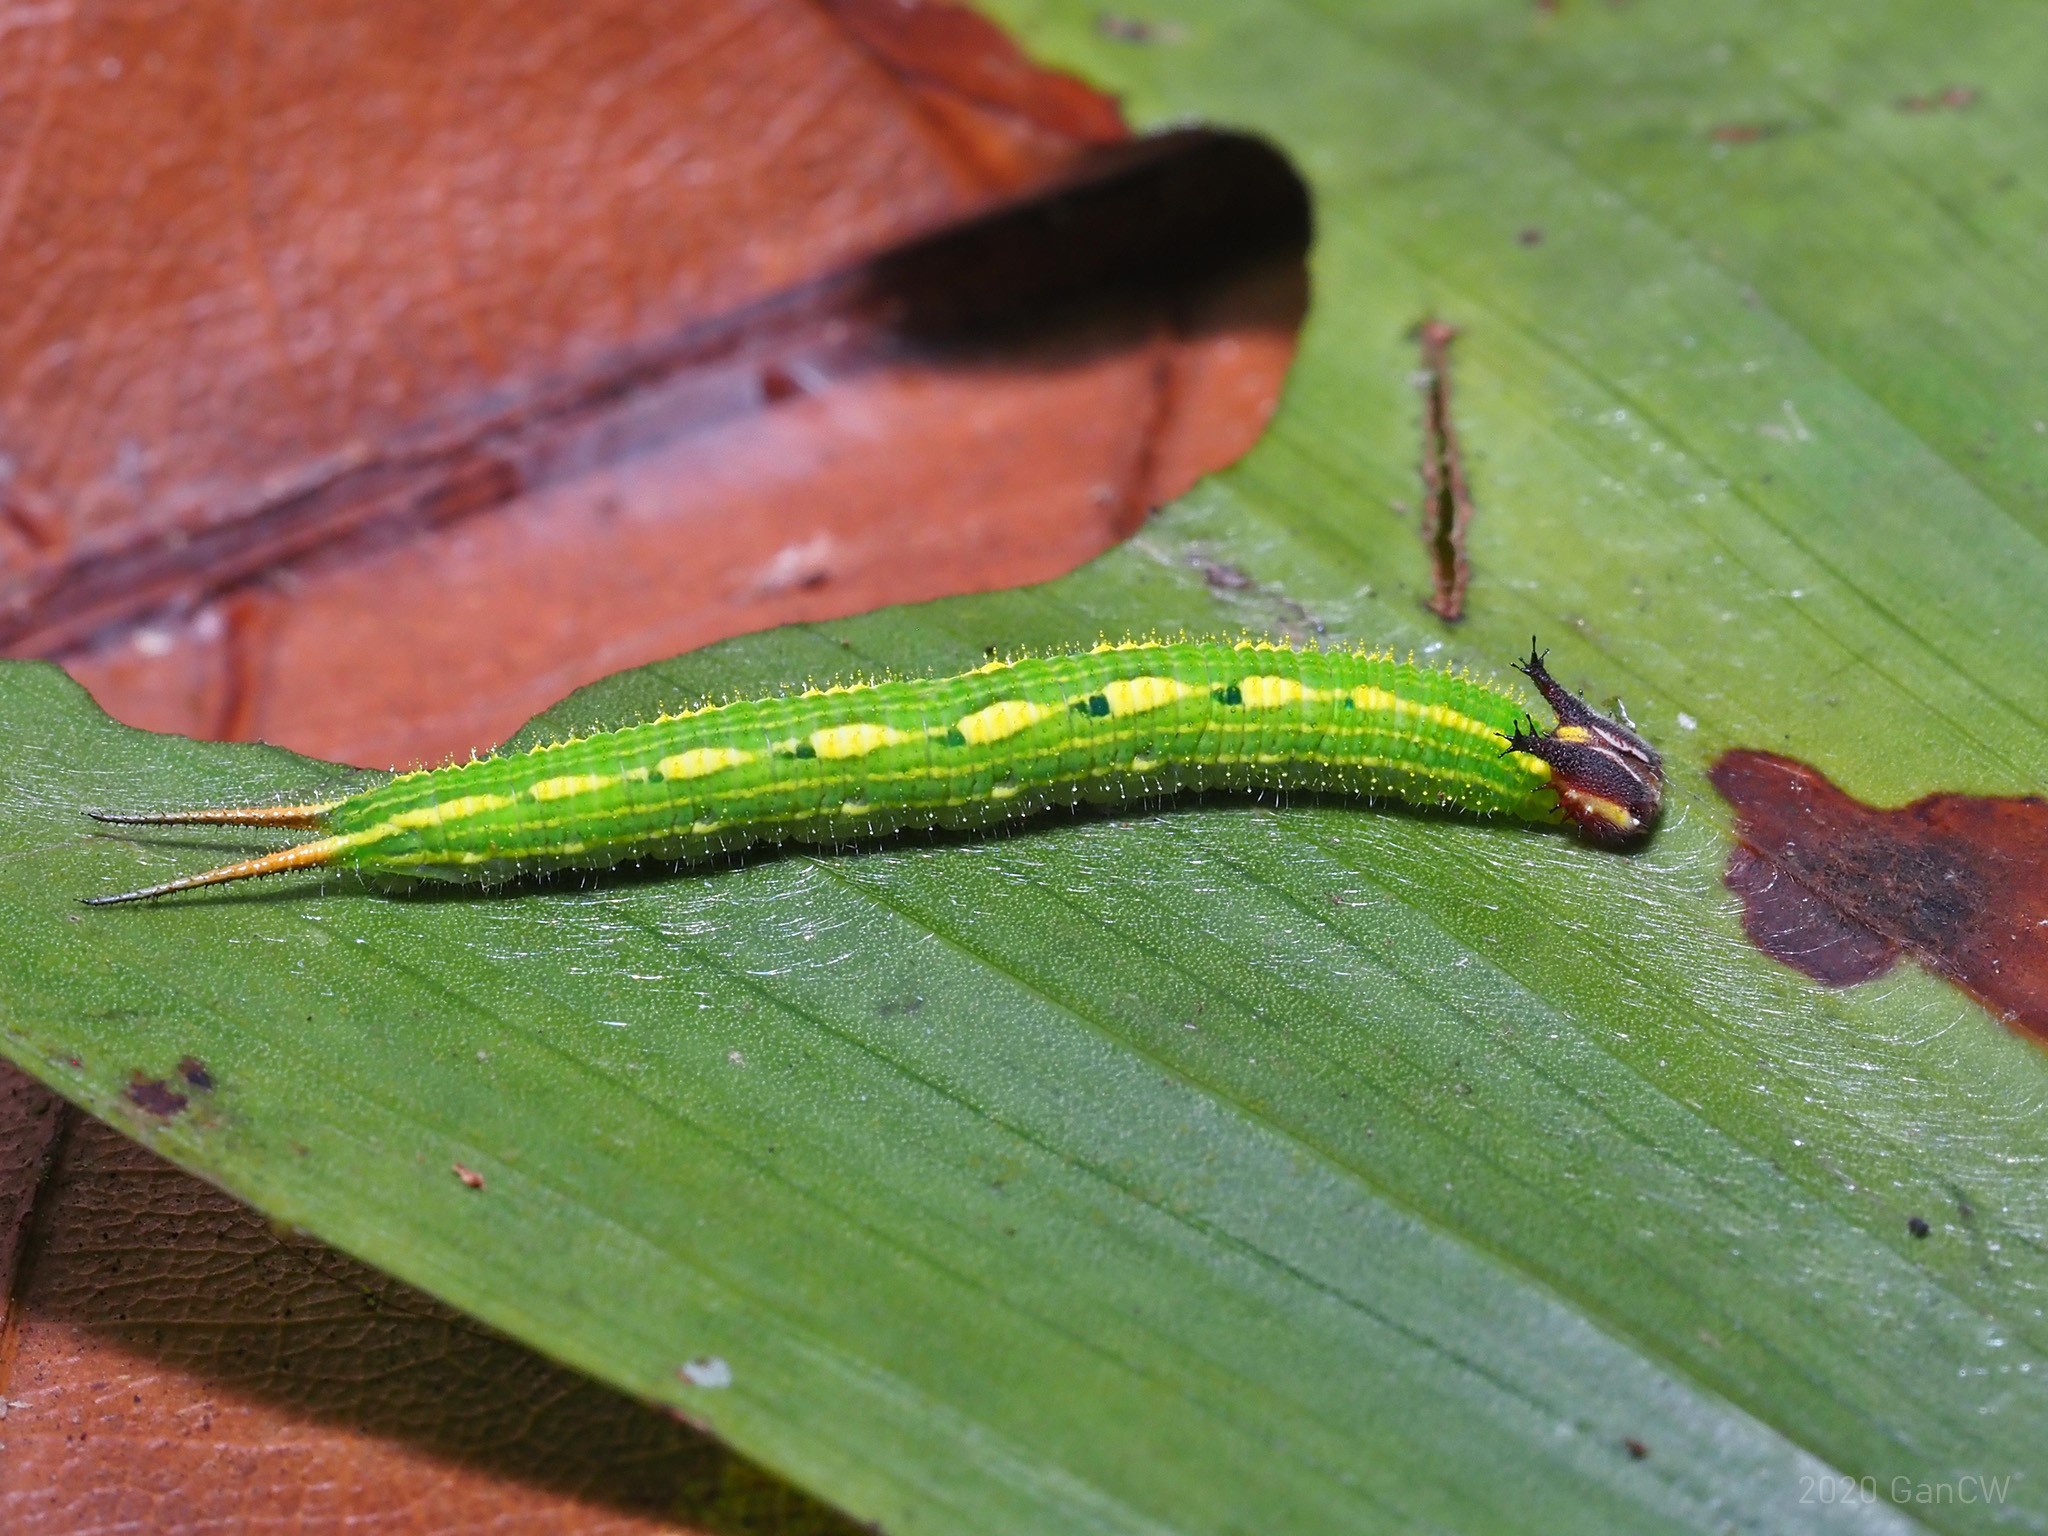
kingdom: Animalia
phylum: Arthropoda
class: Insecta
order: Lepidoptera
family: Nymphalidae
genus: Elymnias
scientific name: Elymnias panthera
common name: Tawny palmfly
